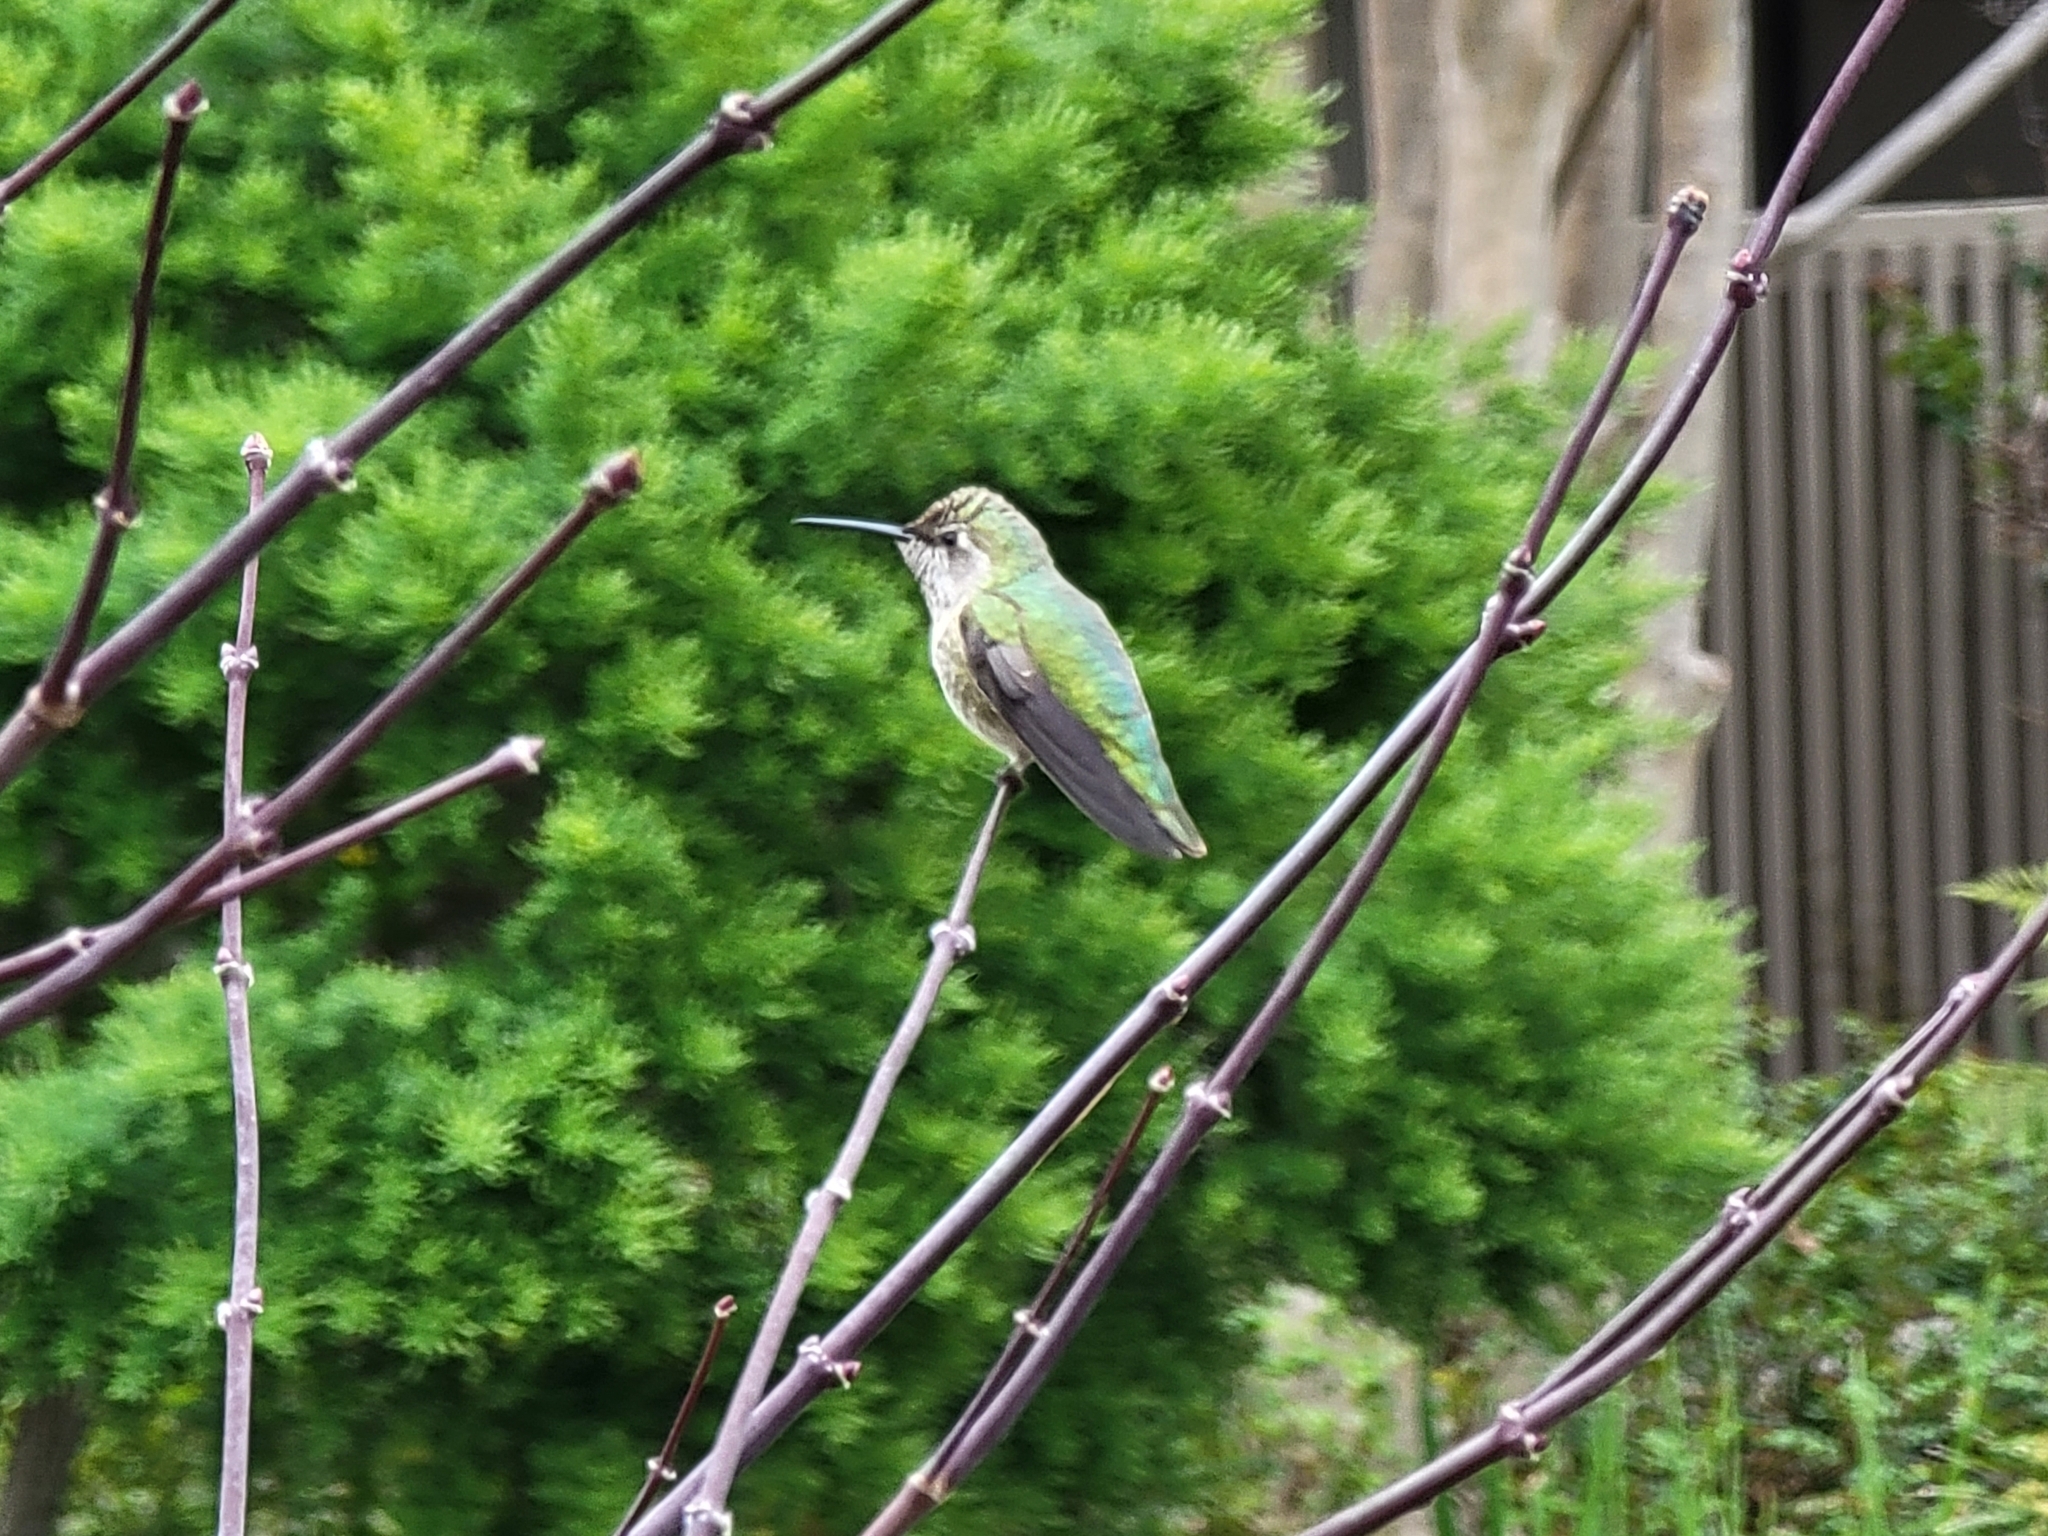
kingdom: Animalia
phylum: Chordata
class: Aves
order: Apodiformes
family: Trochilidae
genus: Calypte
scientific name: Calypte anna
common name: Anna's hummingbird
